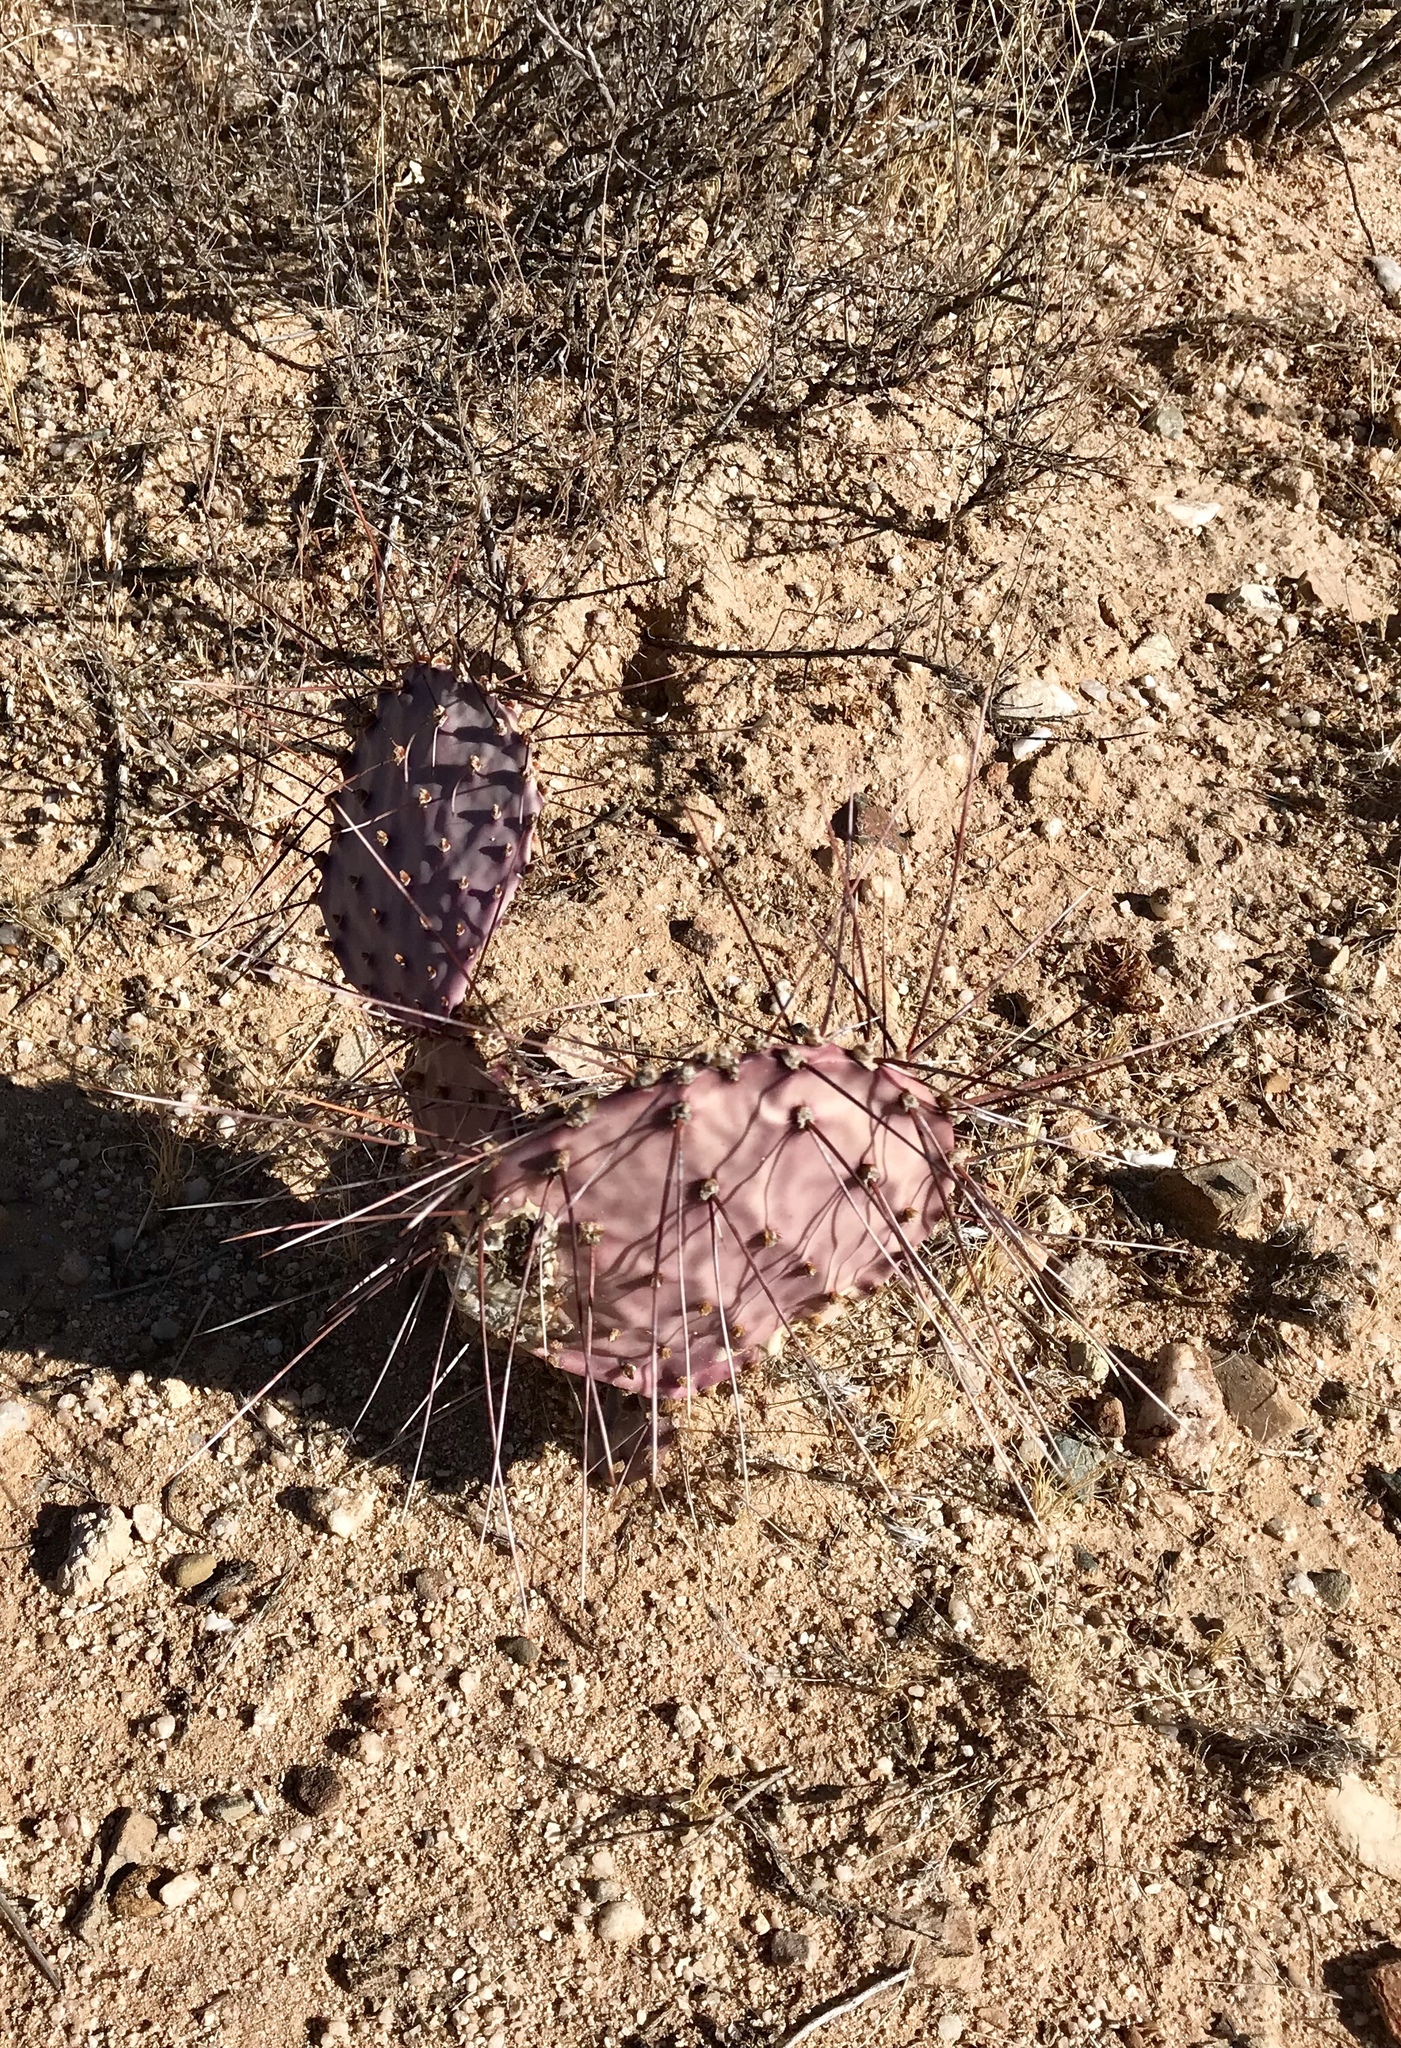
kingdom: Plantae
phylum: Tracheophyta
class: Magnoliopsida
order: Caryophyllales
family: Cactaceae
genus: Opuntia
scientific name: Opuntia macrocentra
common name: Purple prickly-pear
